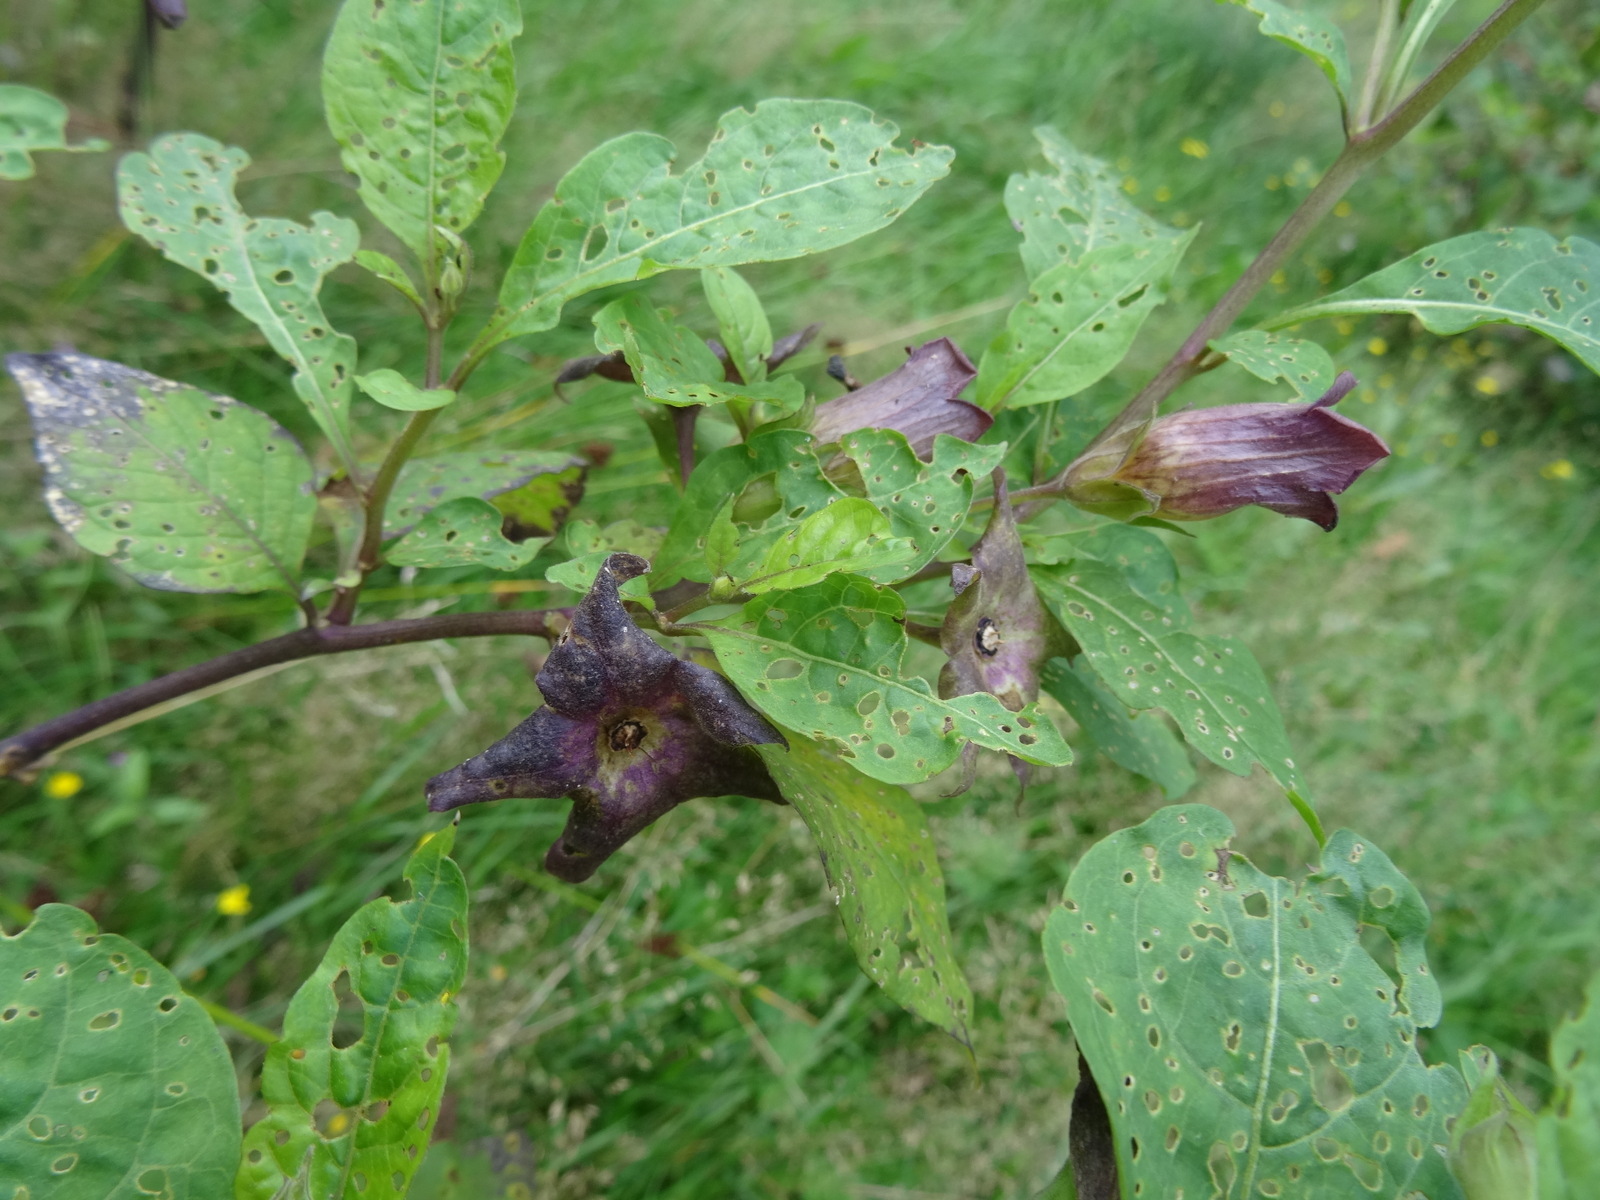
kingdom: Plantae
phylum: Tracheophyta
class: Magnoliopsida
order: Solanales
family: Solanaceae
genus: Atropa
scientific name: Atropa belladonna
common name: Deadly nightshade
